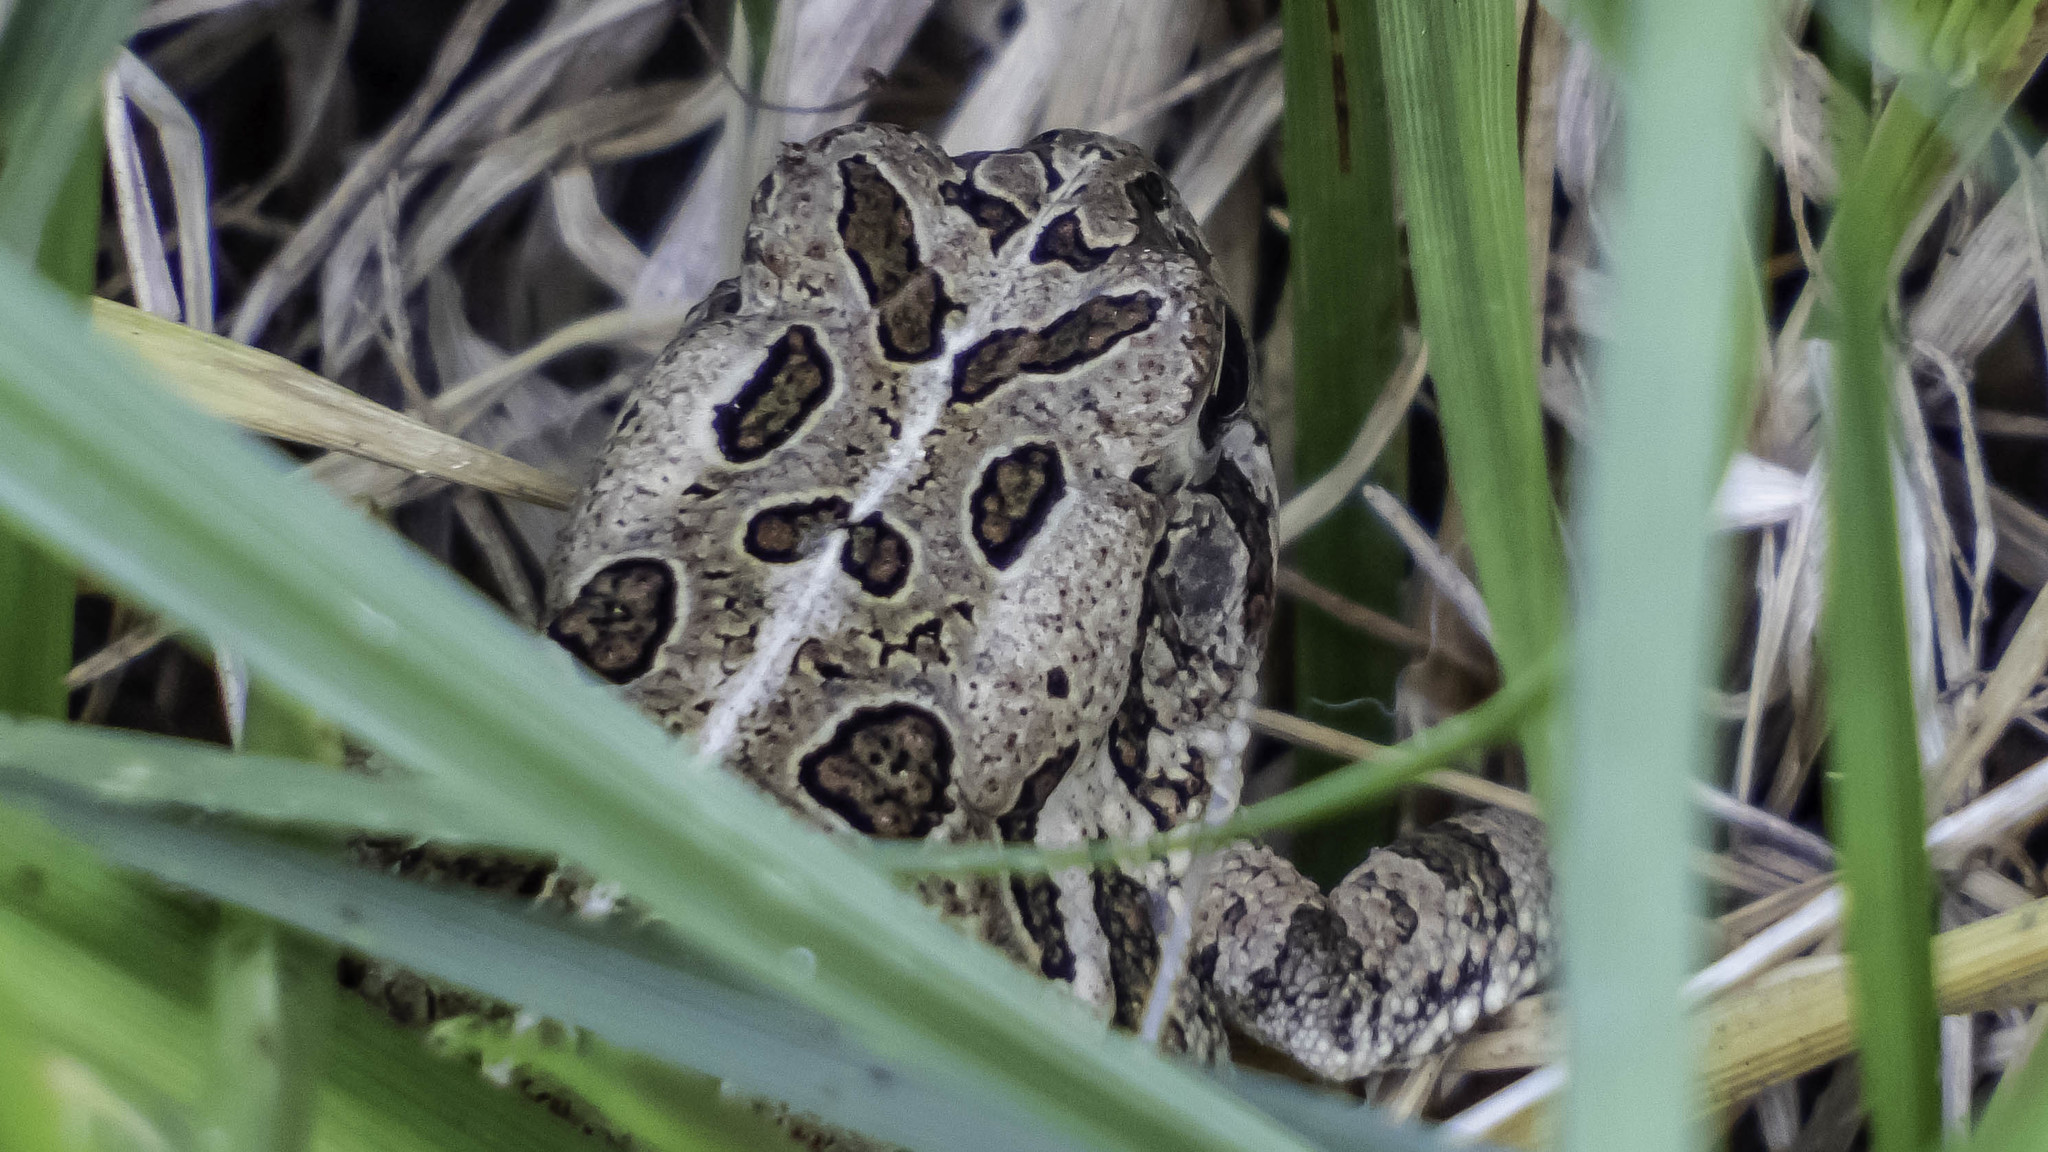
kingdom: Animalia
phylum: Chordata
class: Amphibia
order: Anura
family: Bufonidae
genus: Anaxyrus
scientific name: Anaxyrus fowleri
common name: Fowler's toad
